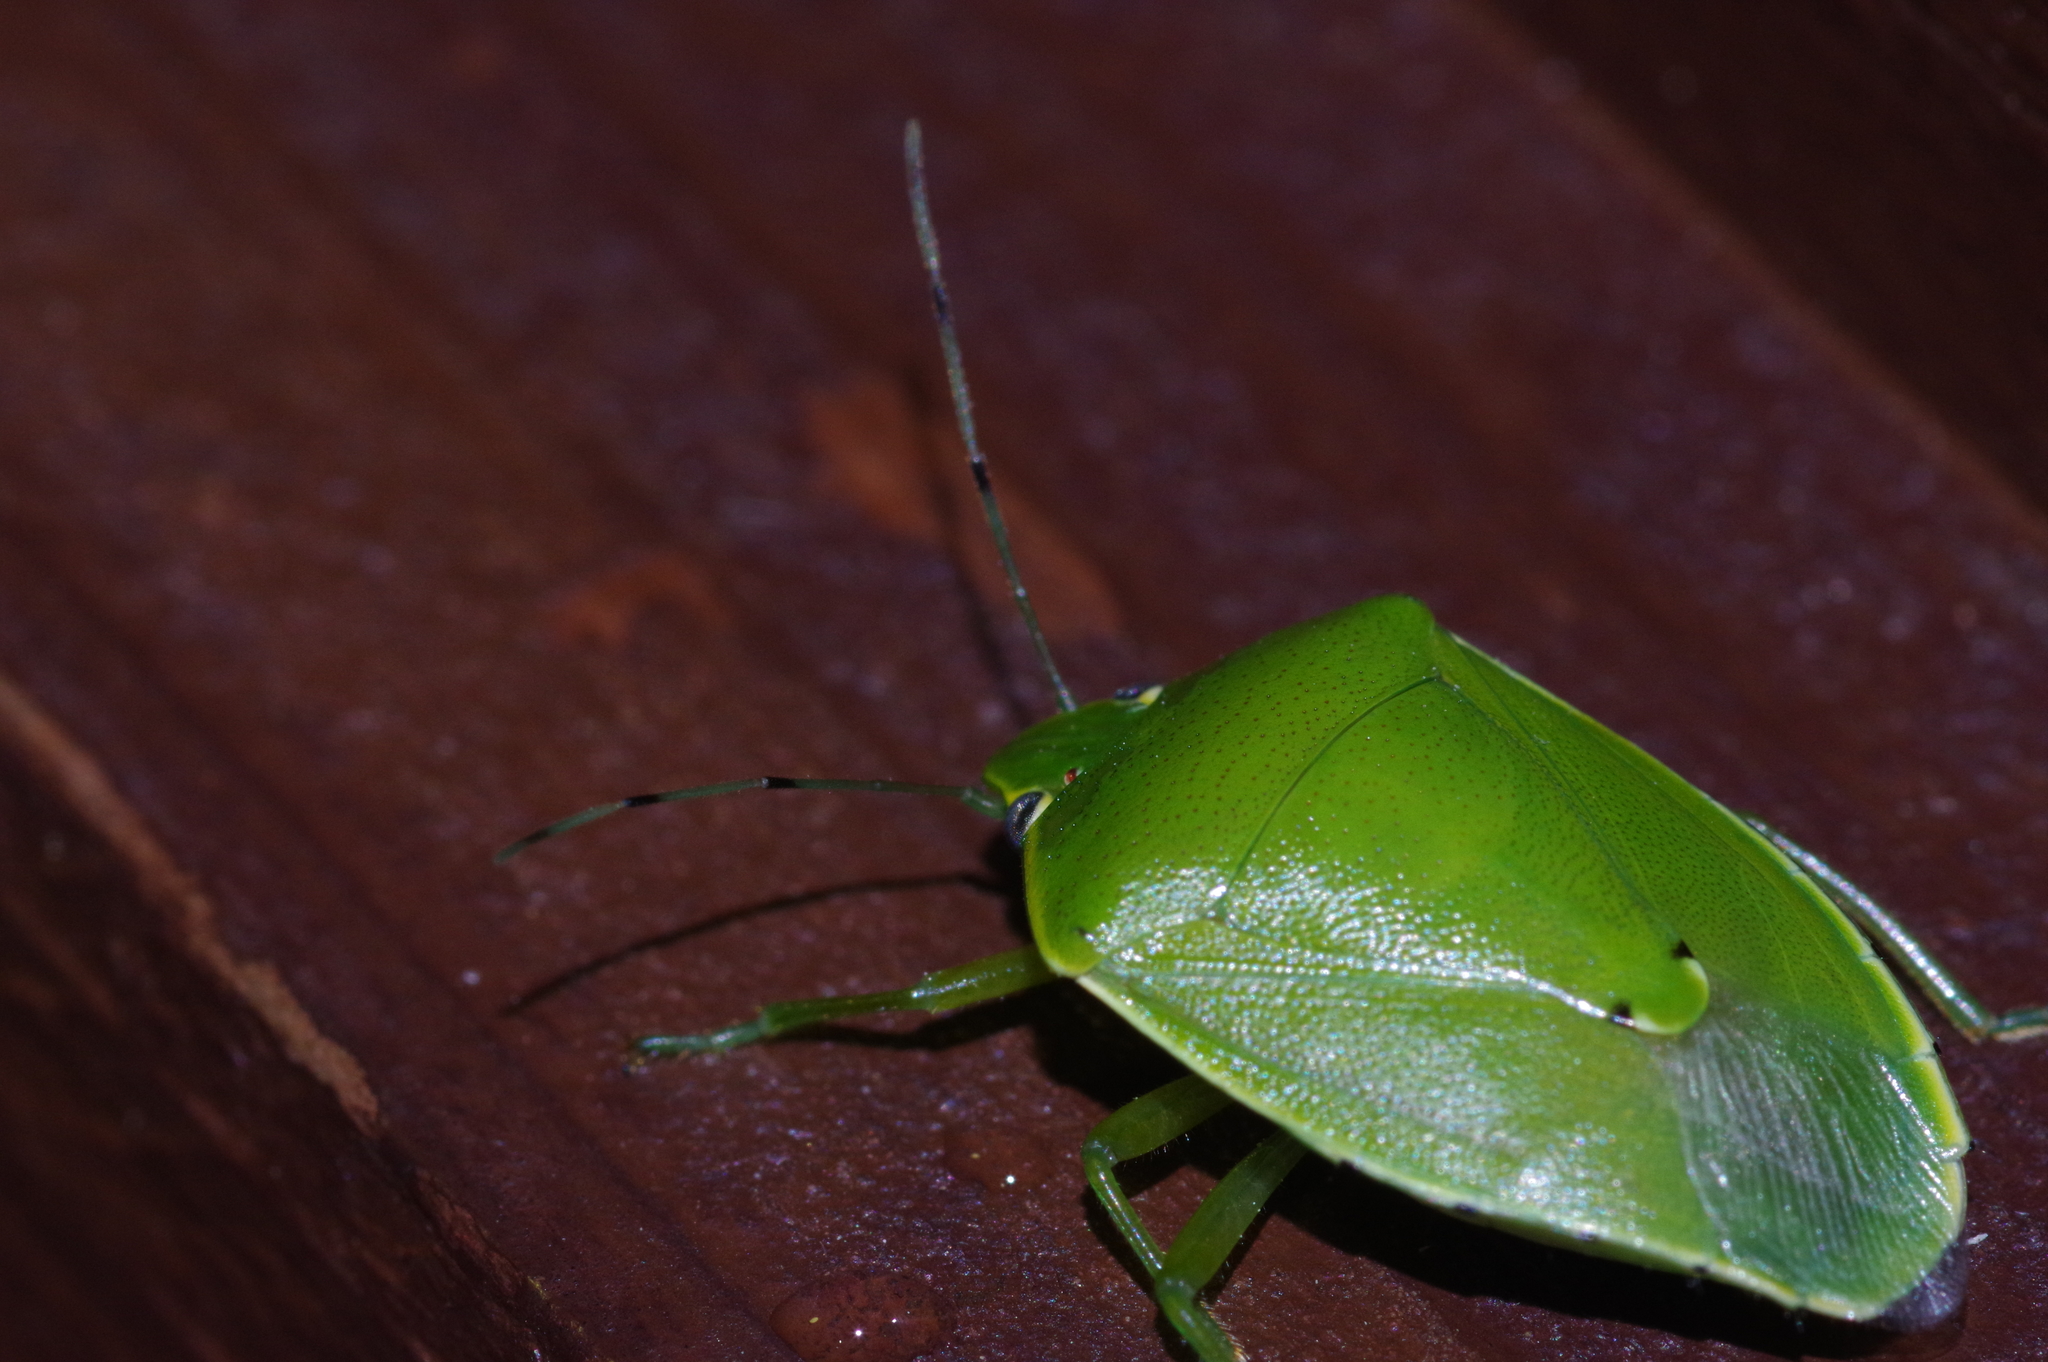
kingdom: Animalia
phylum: Arthropoda
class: Insecta
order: Hemiptera
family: Pentatomidae
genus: Glaucias
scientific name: Glaucias subpunctatus
